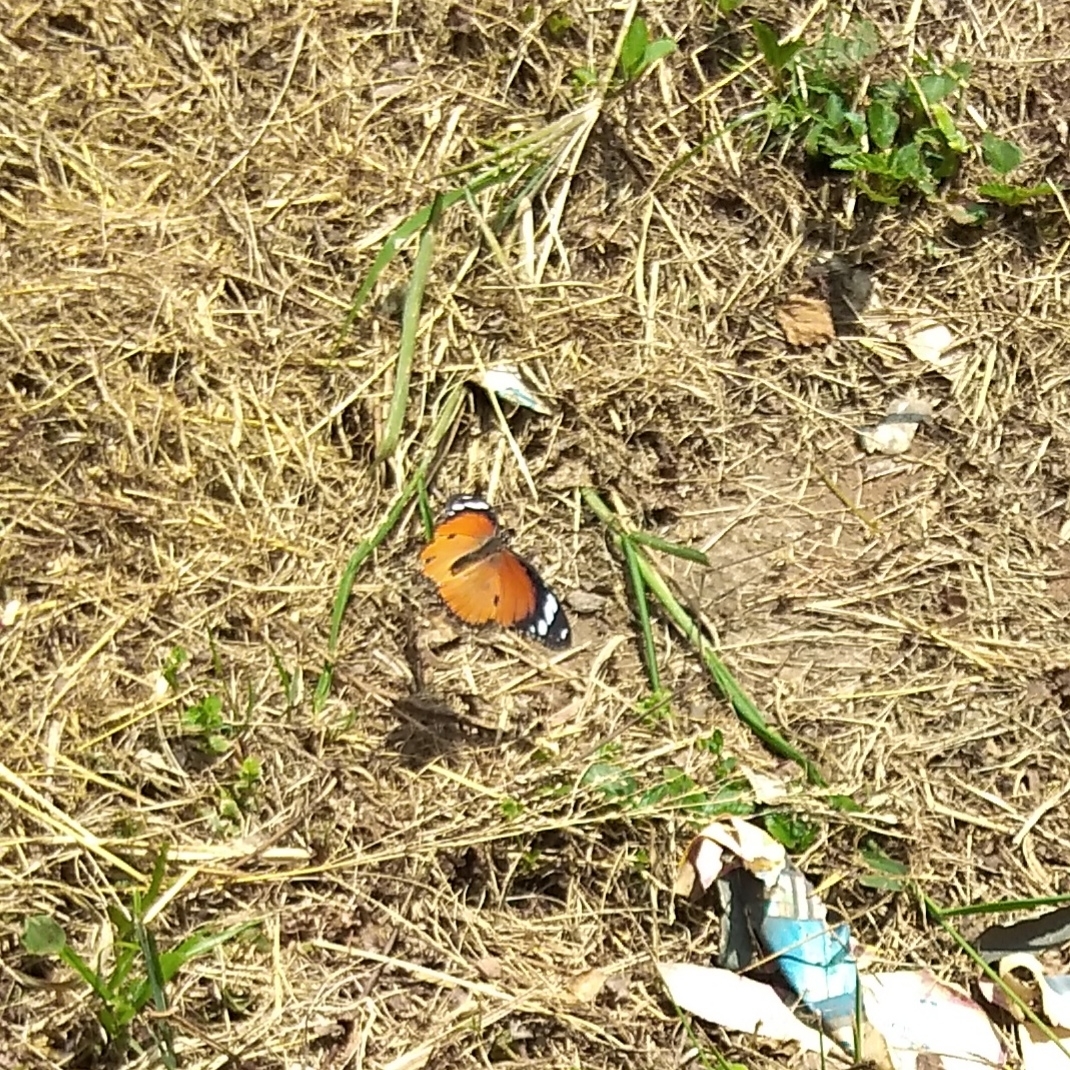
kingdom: Animalia
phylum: Arthropoda
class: Insecta
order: Lepidoptera
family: Nymphalidae
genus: Hypolimnas
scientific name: Hypolimnas misippus
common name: False plain tiger
